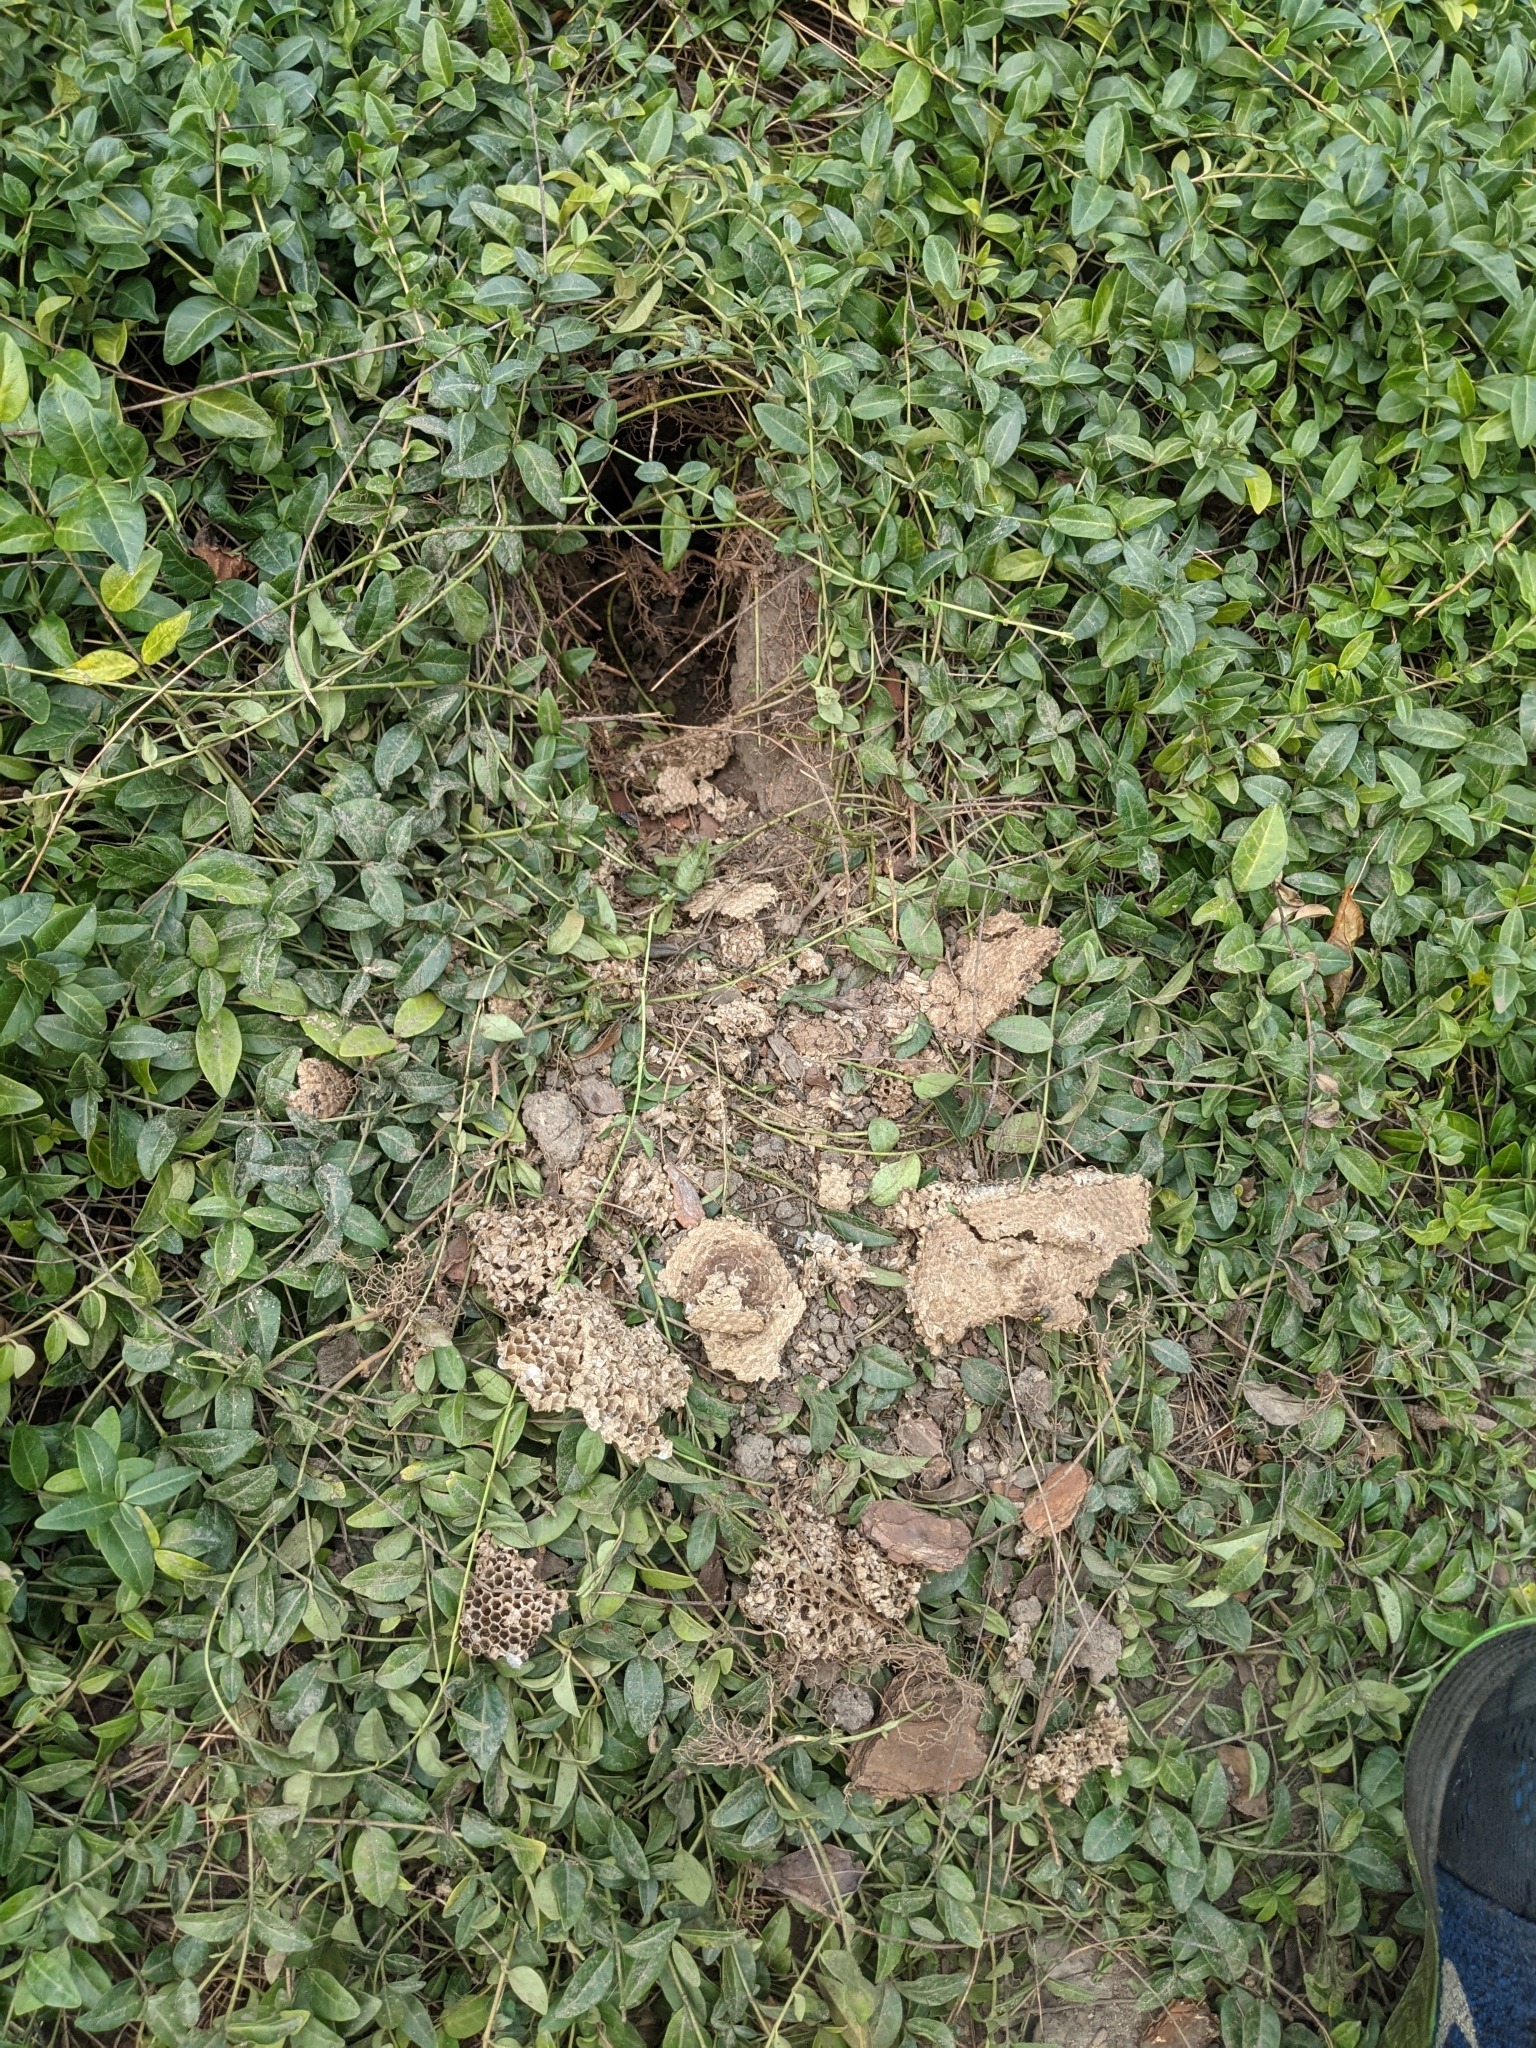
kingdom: Animalia
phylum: Arthropoda
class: Insecta
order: Hymenoptera
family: Vespidae
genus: Vespula
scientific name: Vespula maculifrons
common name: Eastern yellowjacket
